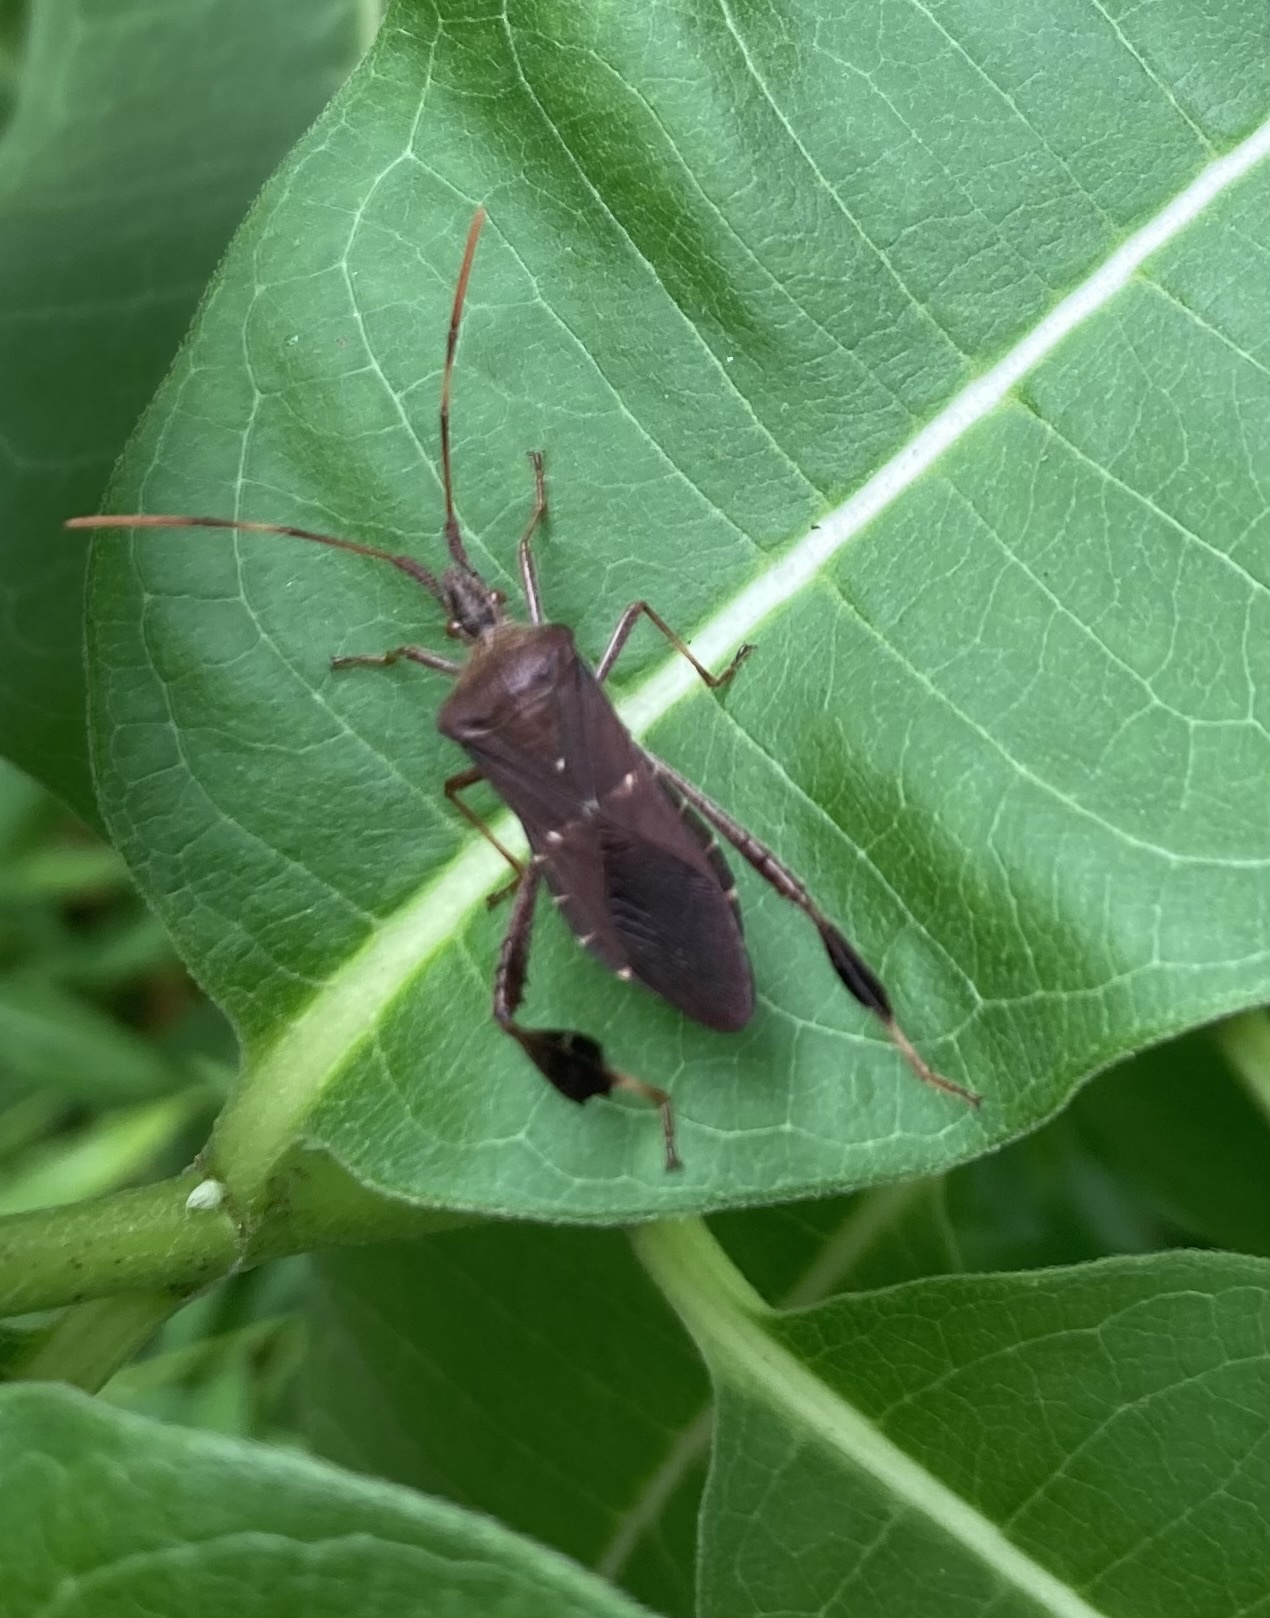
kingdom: Animalia
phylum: Arthropoda
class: Insecta
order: Hemiptera
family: Coreidae
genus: Leptoglossus
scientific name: Leptoglossus oppositus
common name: Northern leaf-footed bug
